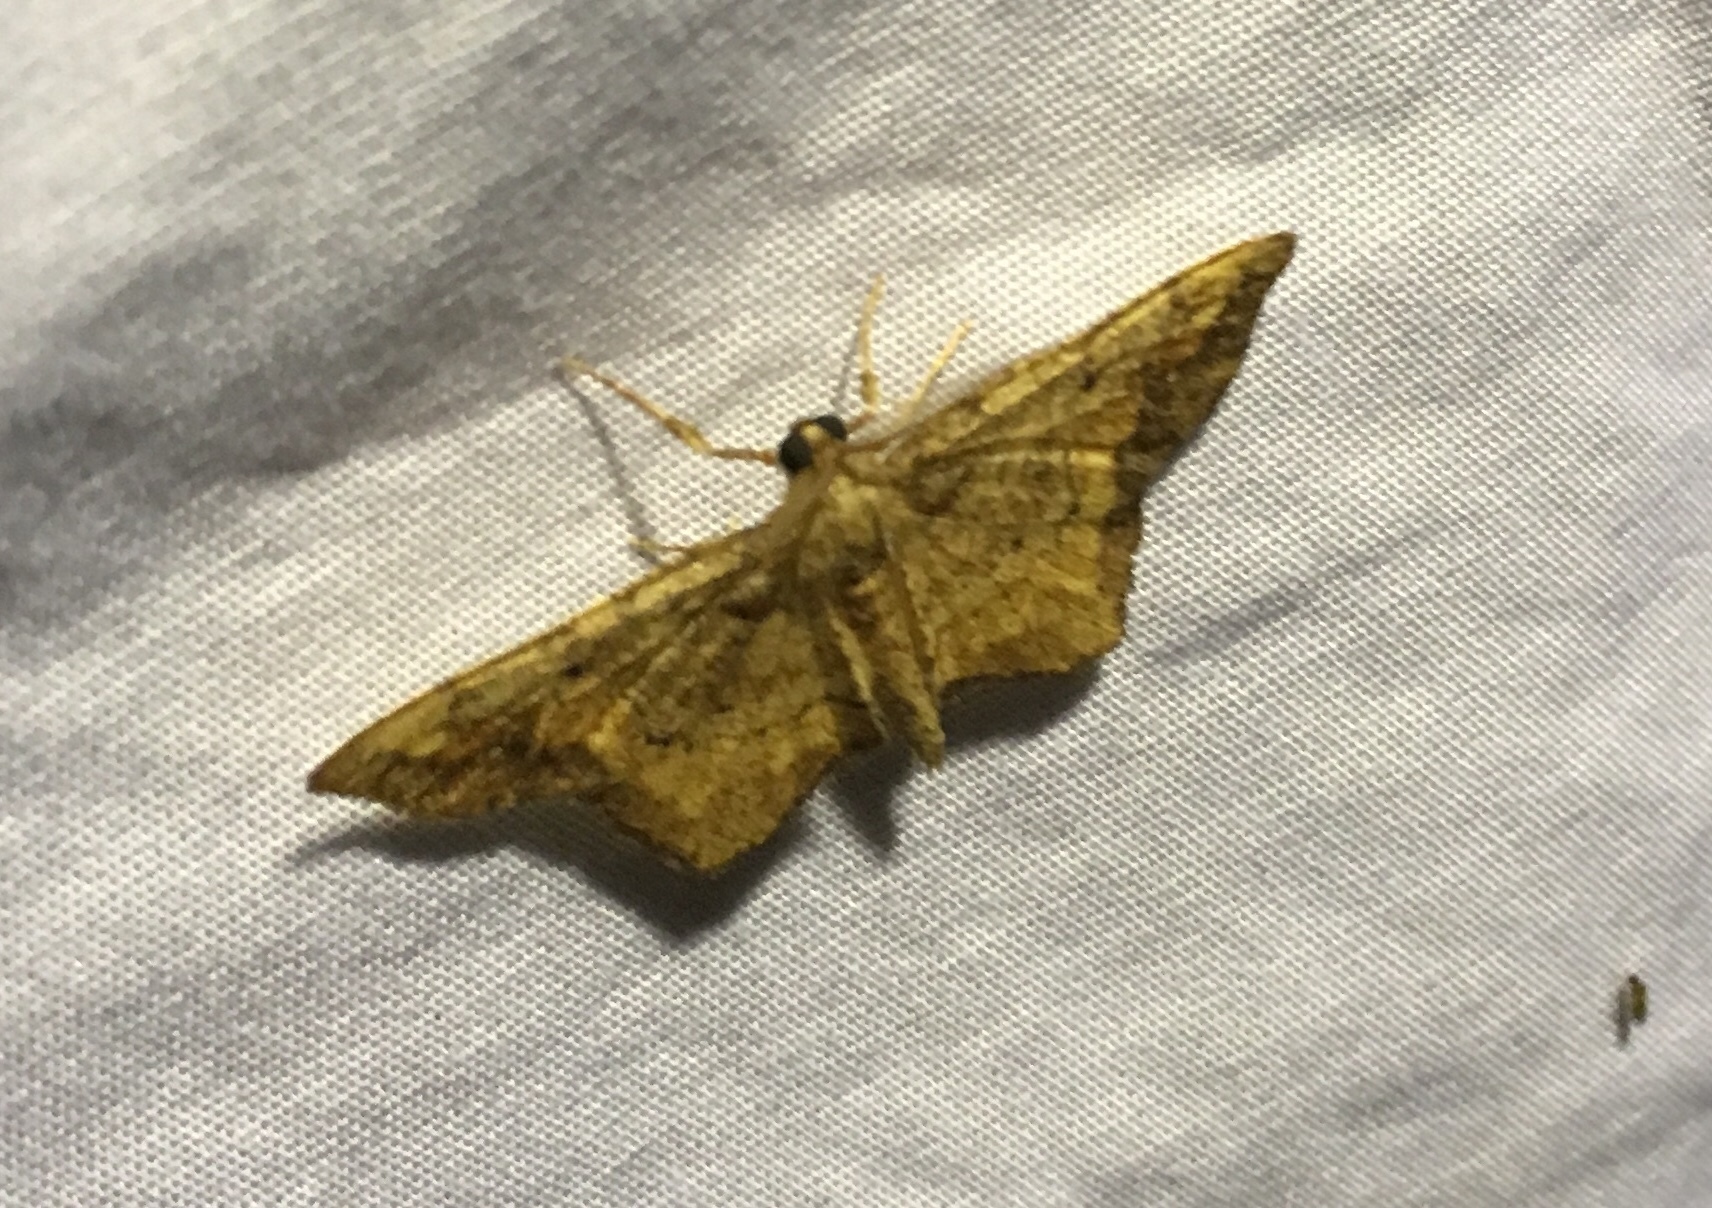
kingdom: Animalia
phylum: Arthropoda
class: Insecta
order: Lepidoptera
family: Geometridae
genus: Hypagyrtis
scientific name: Hypagyrtis unipunctata
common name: One-spotted variant
